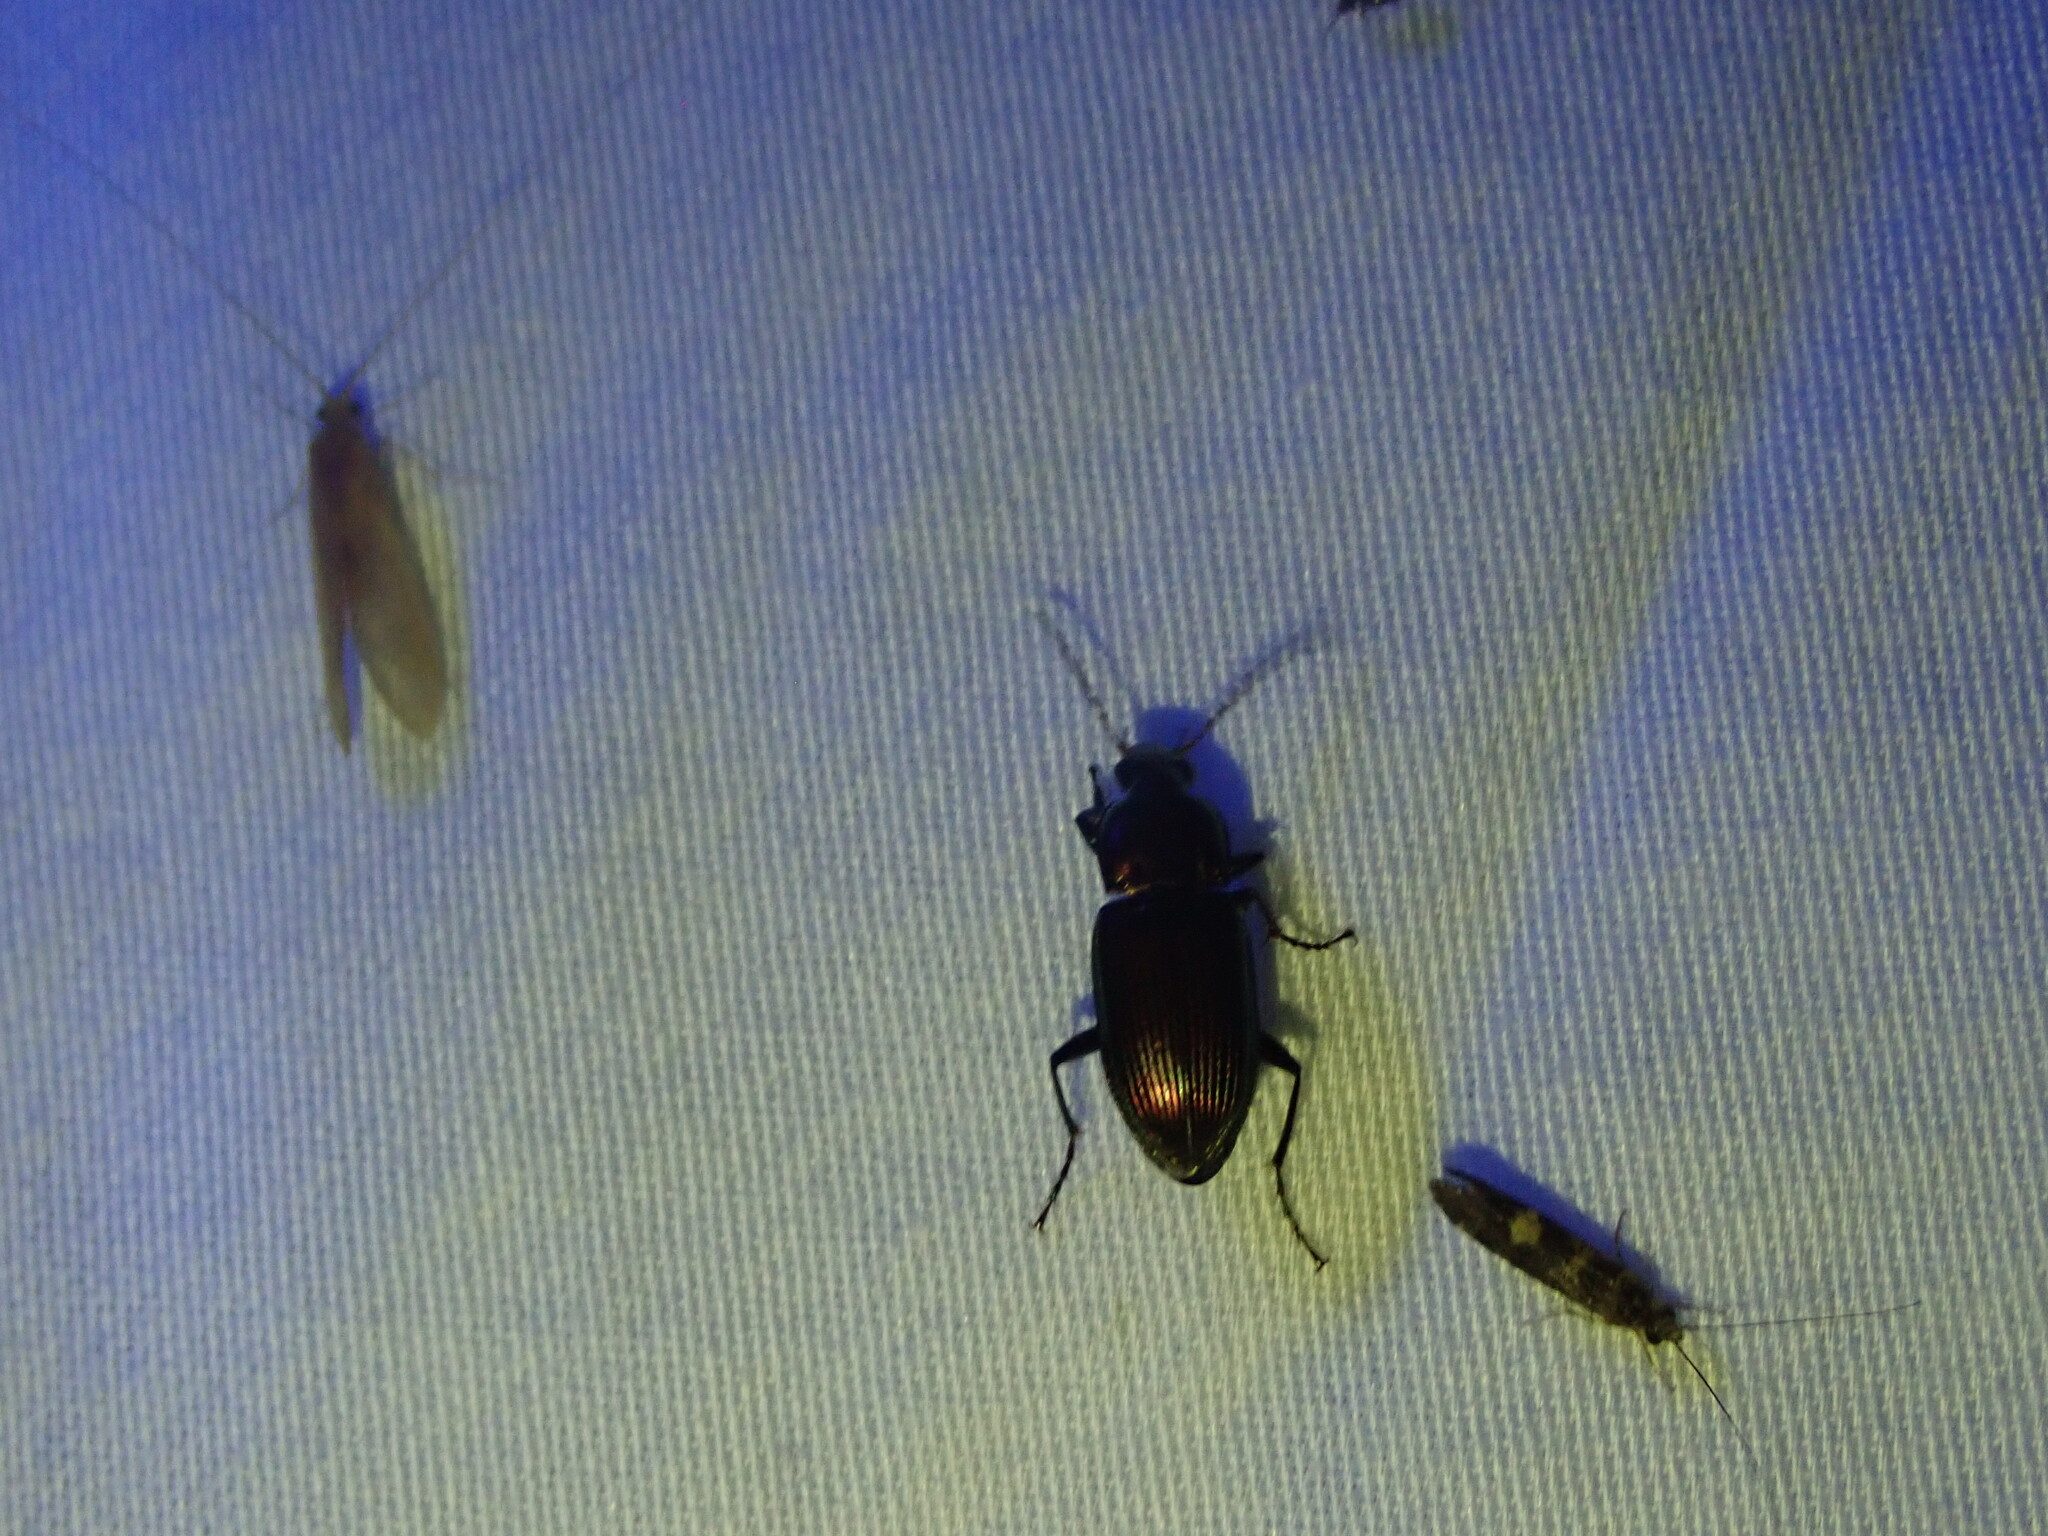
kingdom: Animalia
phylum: Arthropoda
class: Insecta
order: Coleoptera
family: Carabidae
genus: Poecilus
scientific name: Poecilus chalcites
